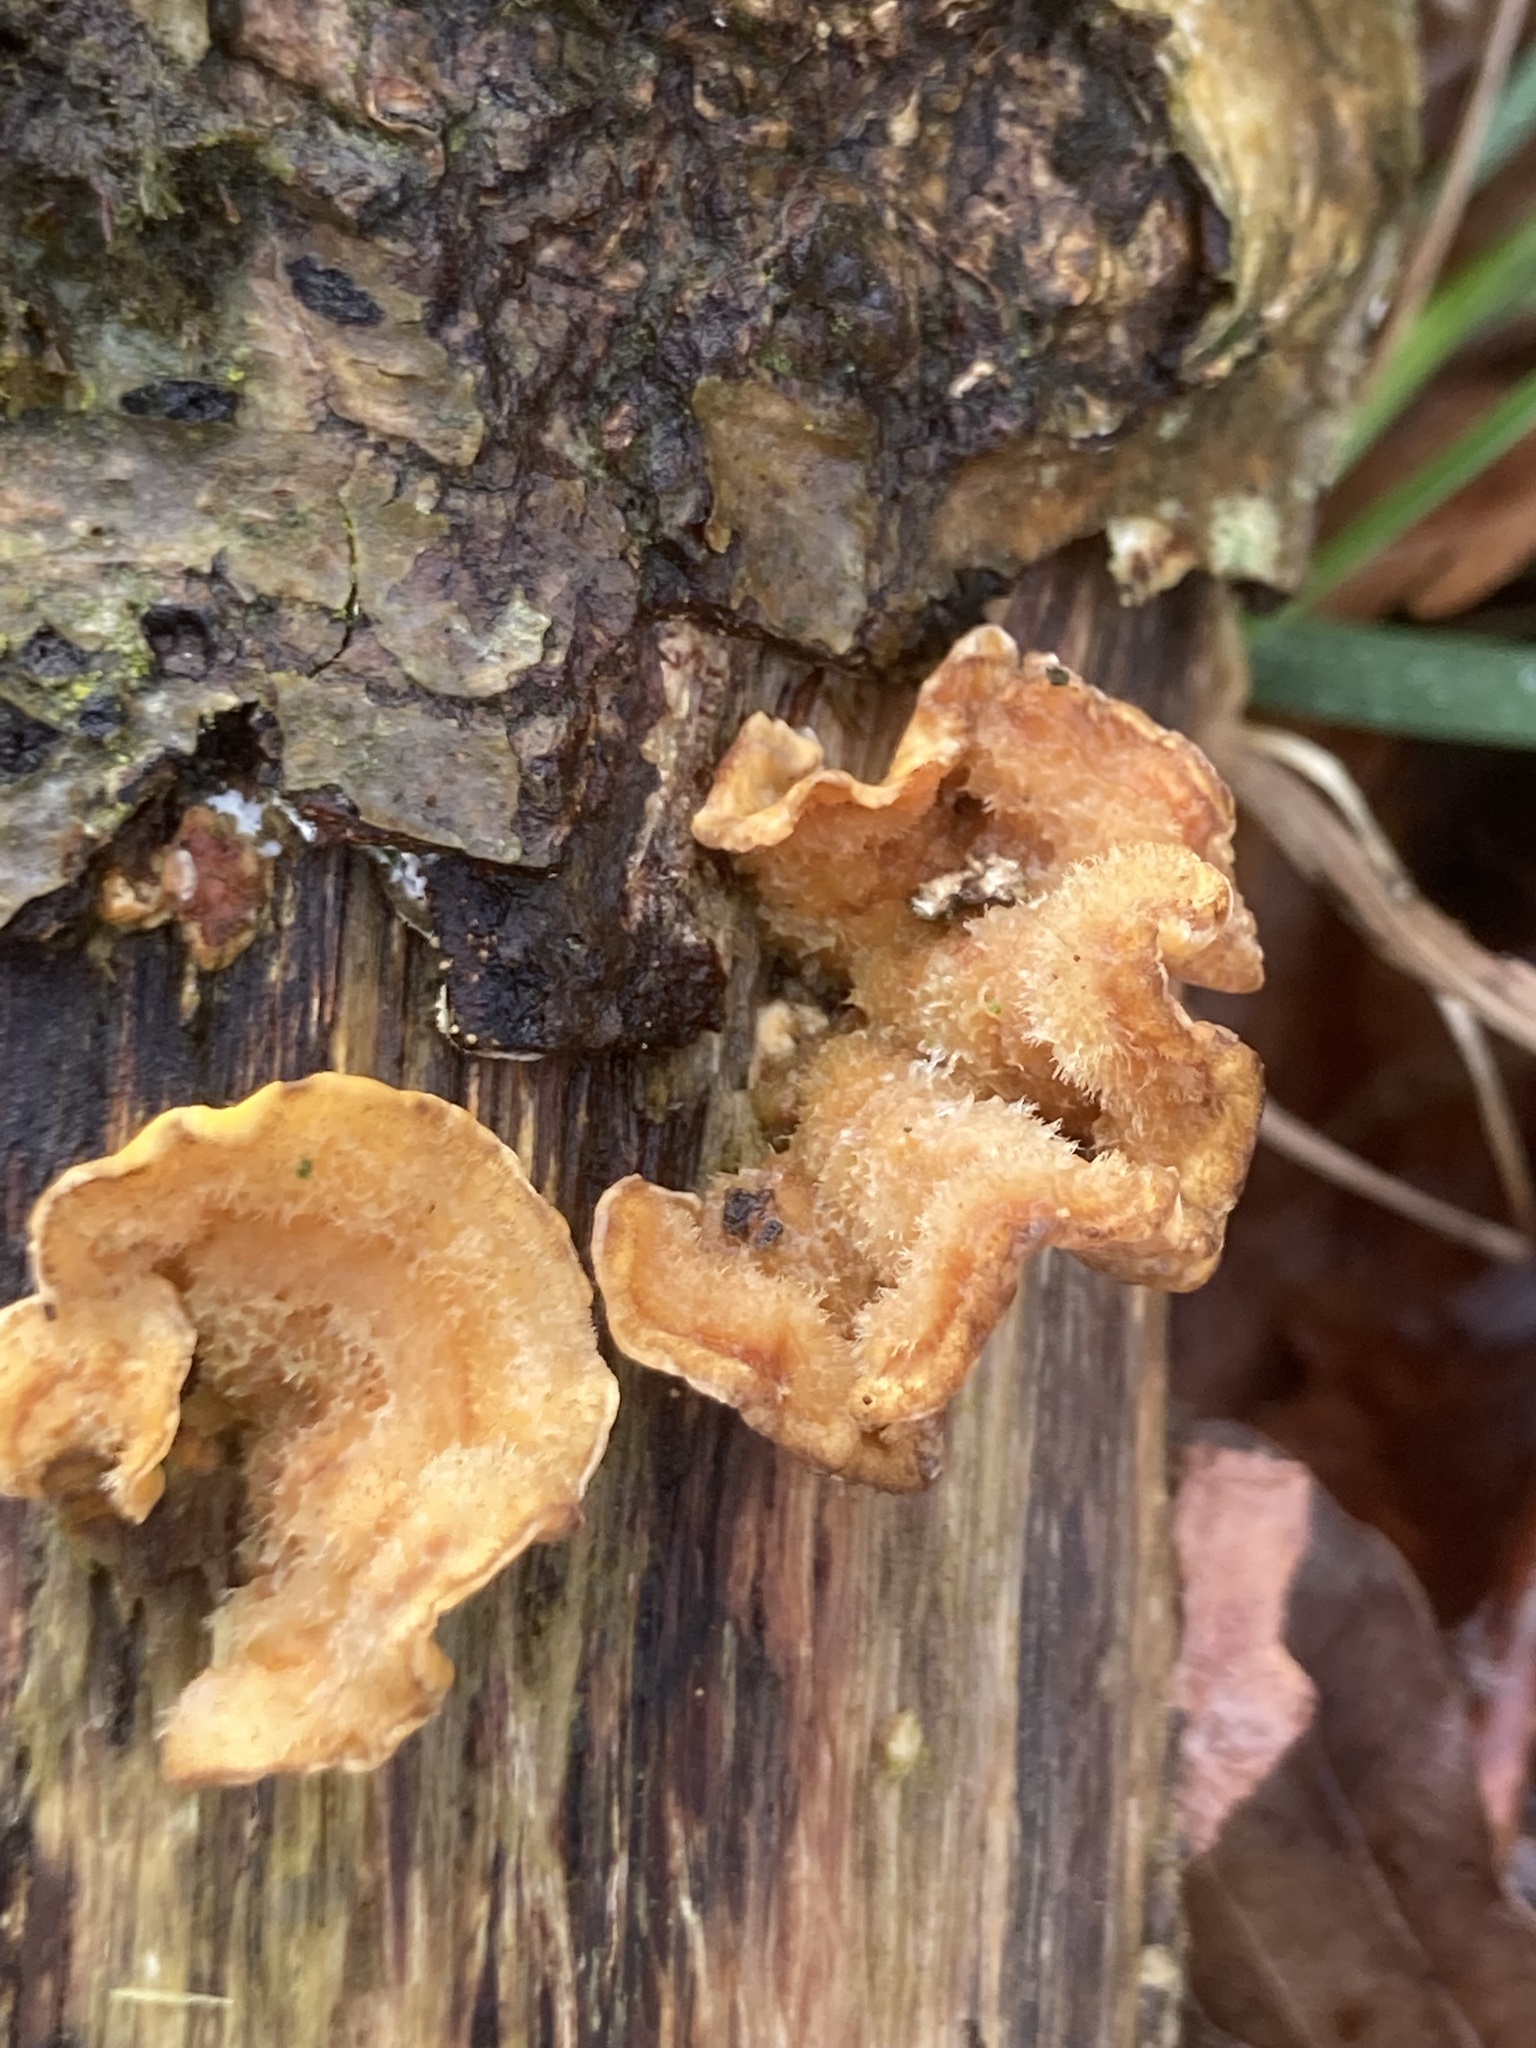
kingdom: Fungi
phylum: Basidiomycota
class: Agaricomycetes
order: Russulales
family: Stereaceae
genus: Stereum
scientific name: Stereum hirsutum
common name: Hairy curtain crust
